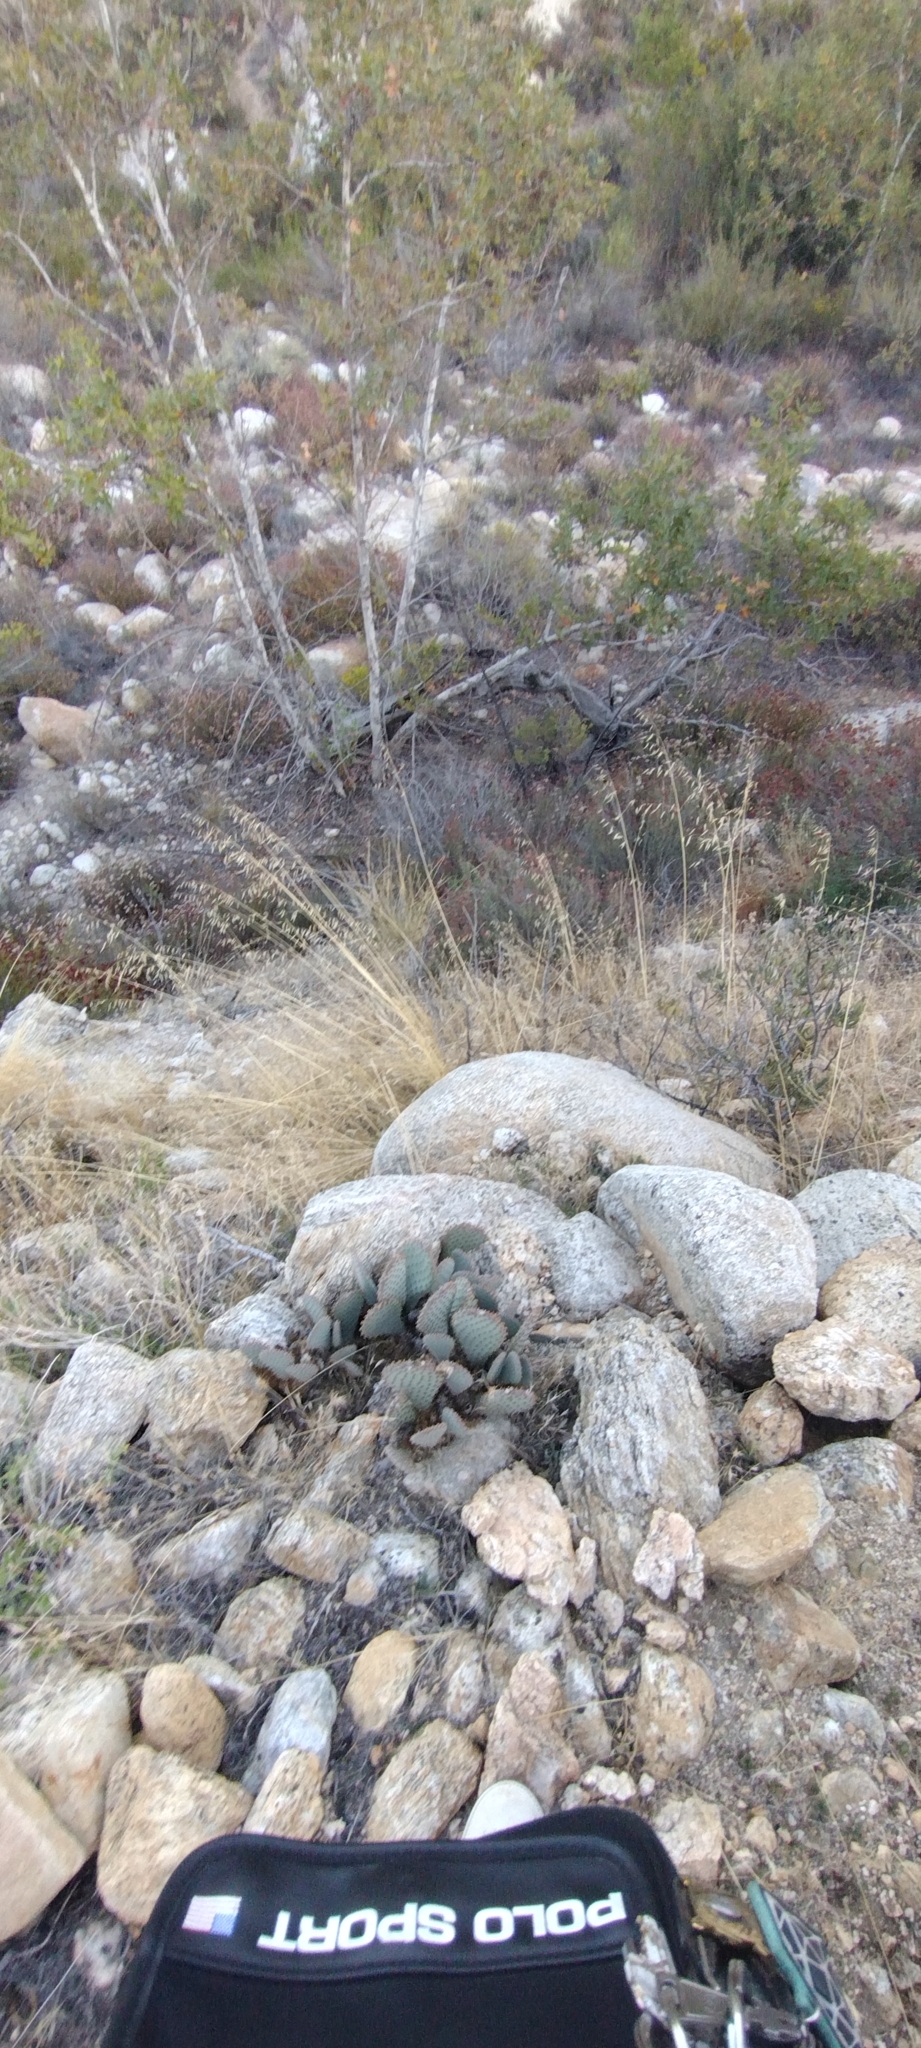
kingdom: Plantae
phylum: Tracheophyta
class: Magnoliopsida
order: Caryophyllales
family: Cactaceae
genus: Opuntia
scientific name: Opuntia basilaris
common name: Beavertail prickly-pear
